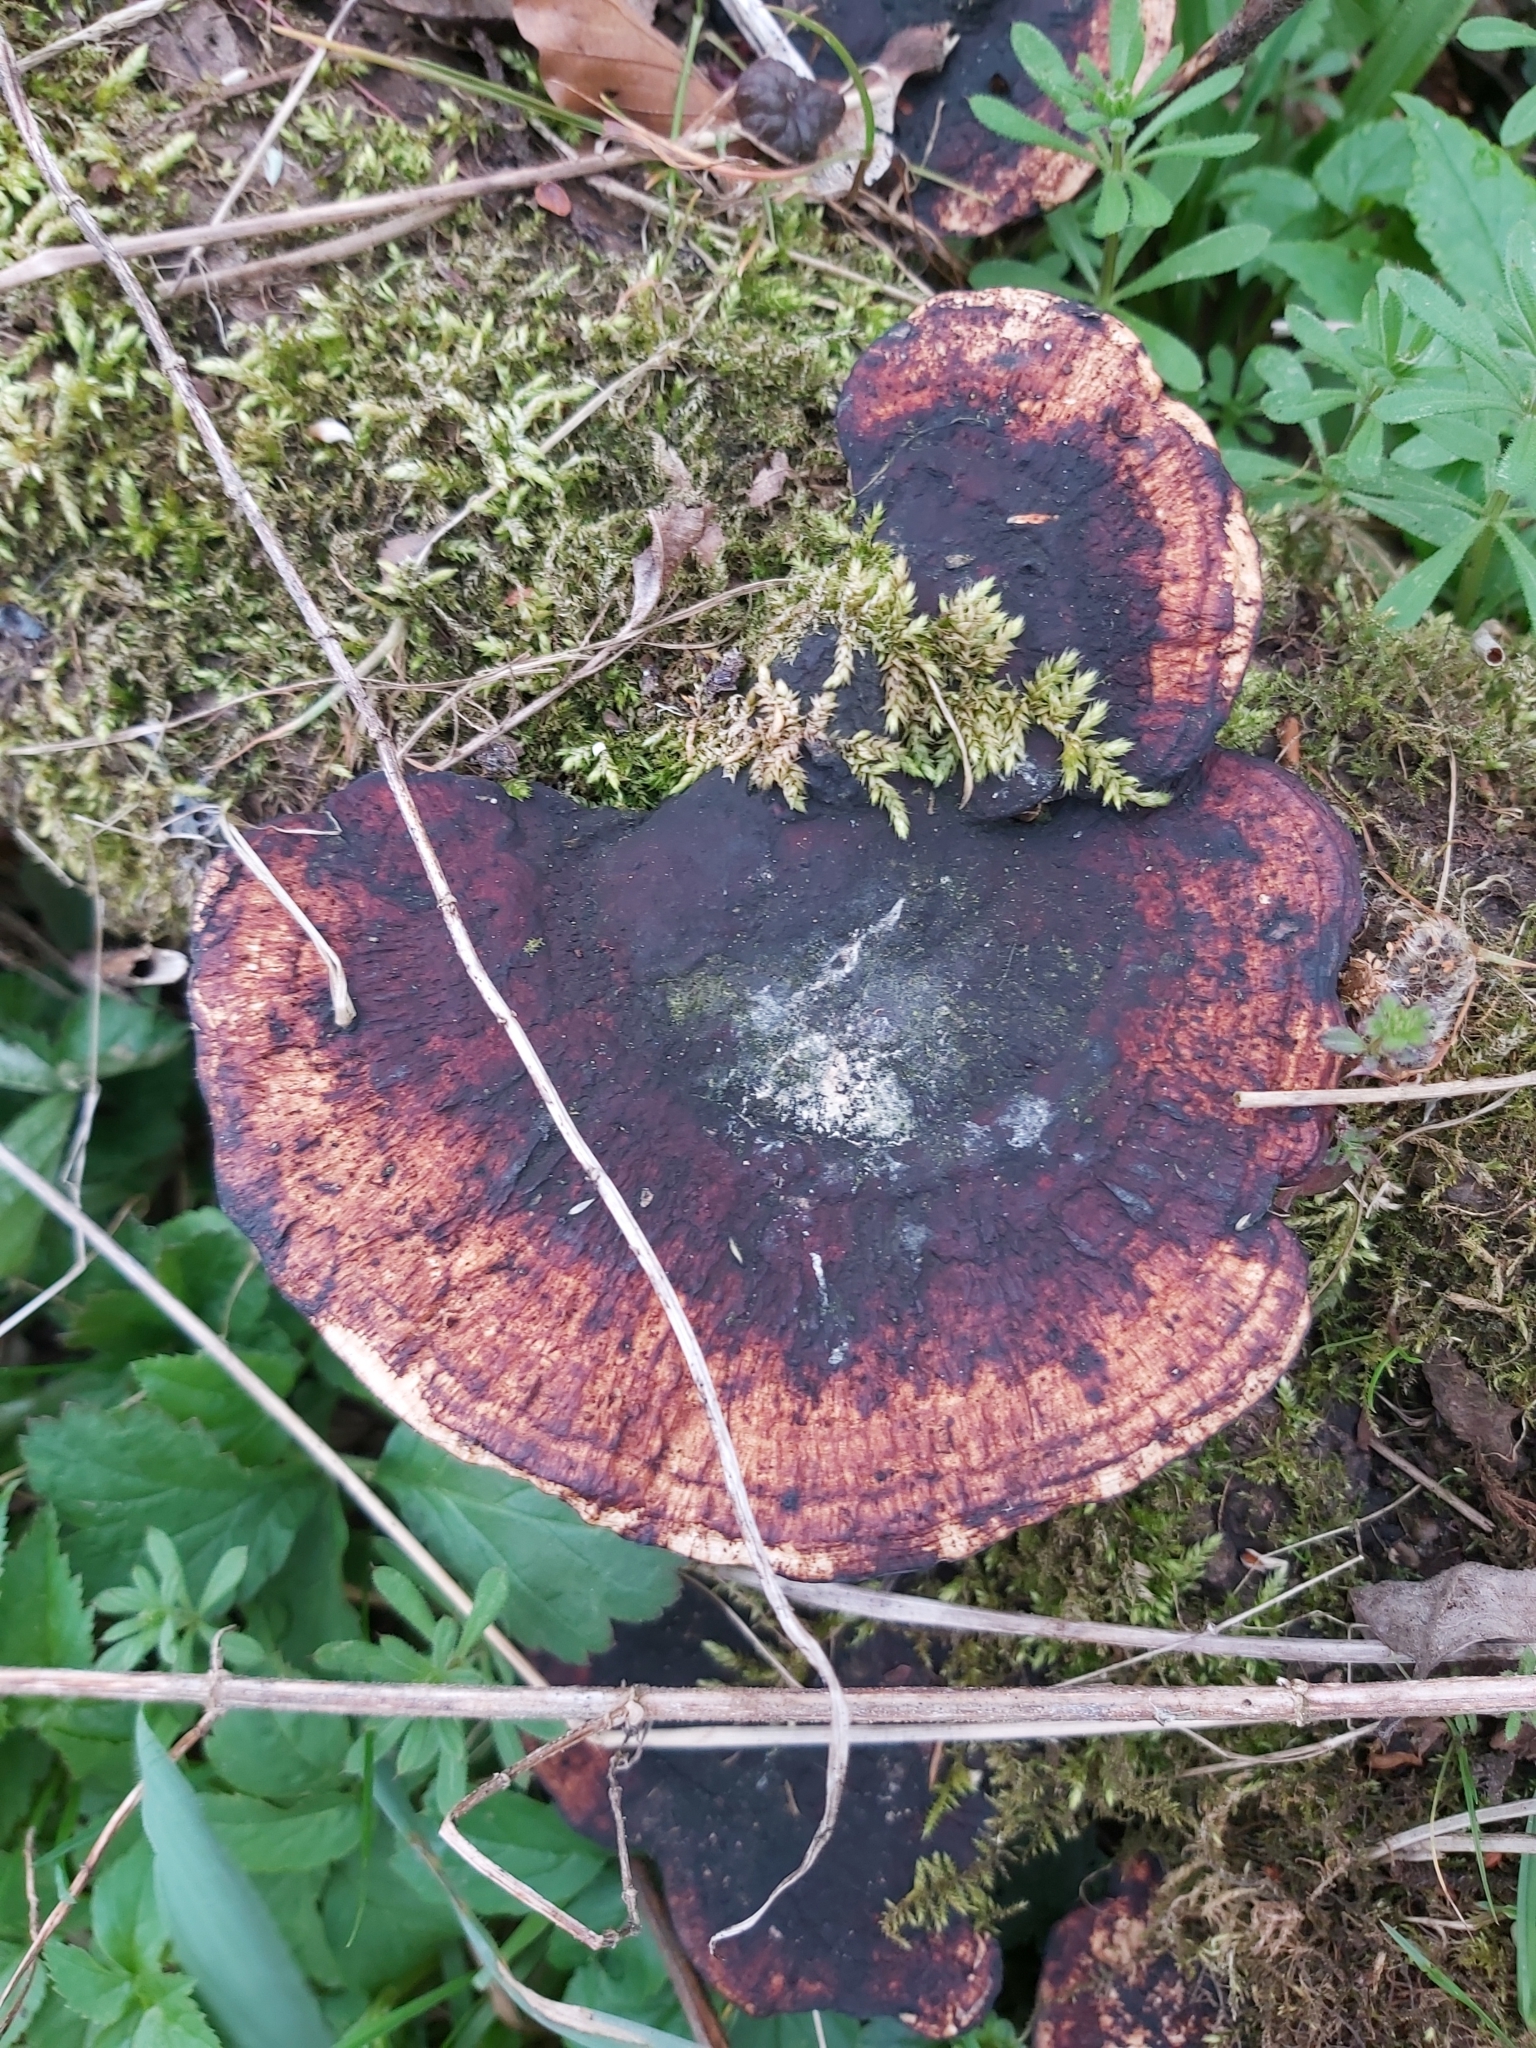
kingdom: Fungi
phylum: Basidiomycota
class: Agaricomycetes
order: Polyporales
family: Polyporaceae
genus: Daedaleopsis
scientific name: Daedaleopsis confragosa
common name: Blushing bracket
